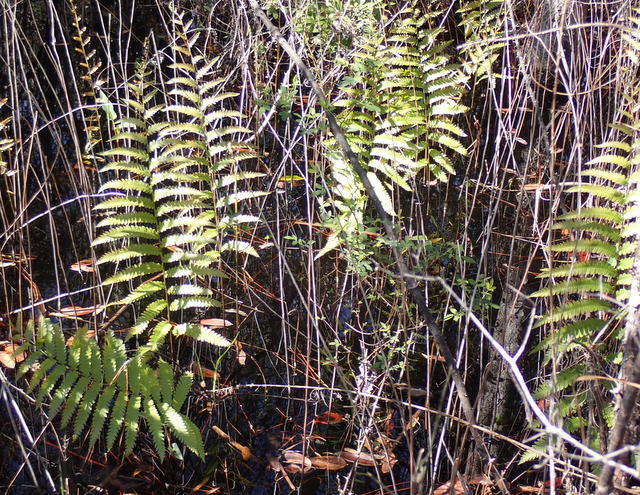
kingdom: Plantae
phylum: Tracheophyta
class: Polypodiopsida
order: Polypodiales
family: Blechnaceae
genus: Anchistea
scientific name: Anchistea virginica
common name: Virginia chain fern
